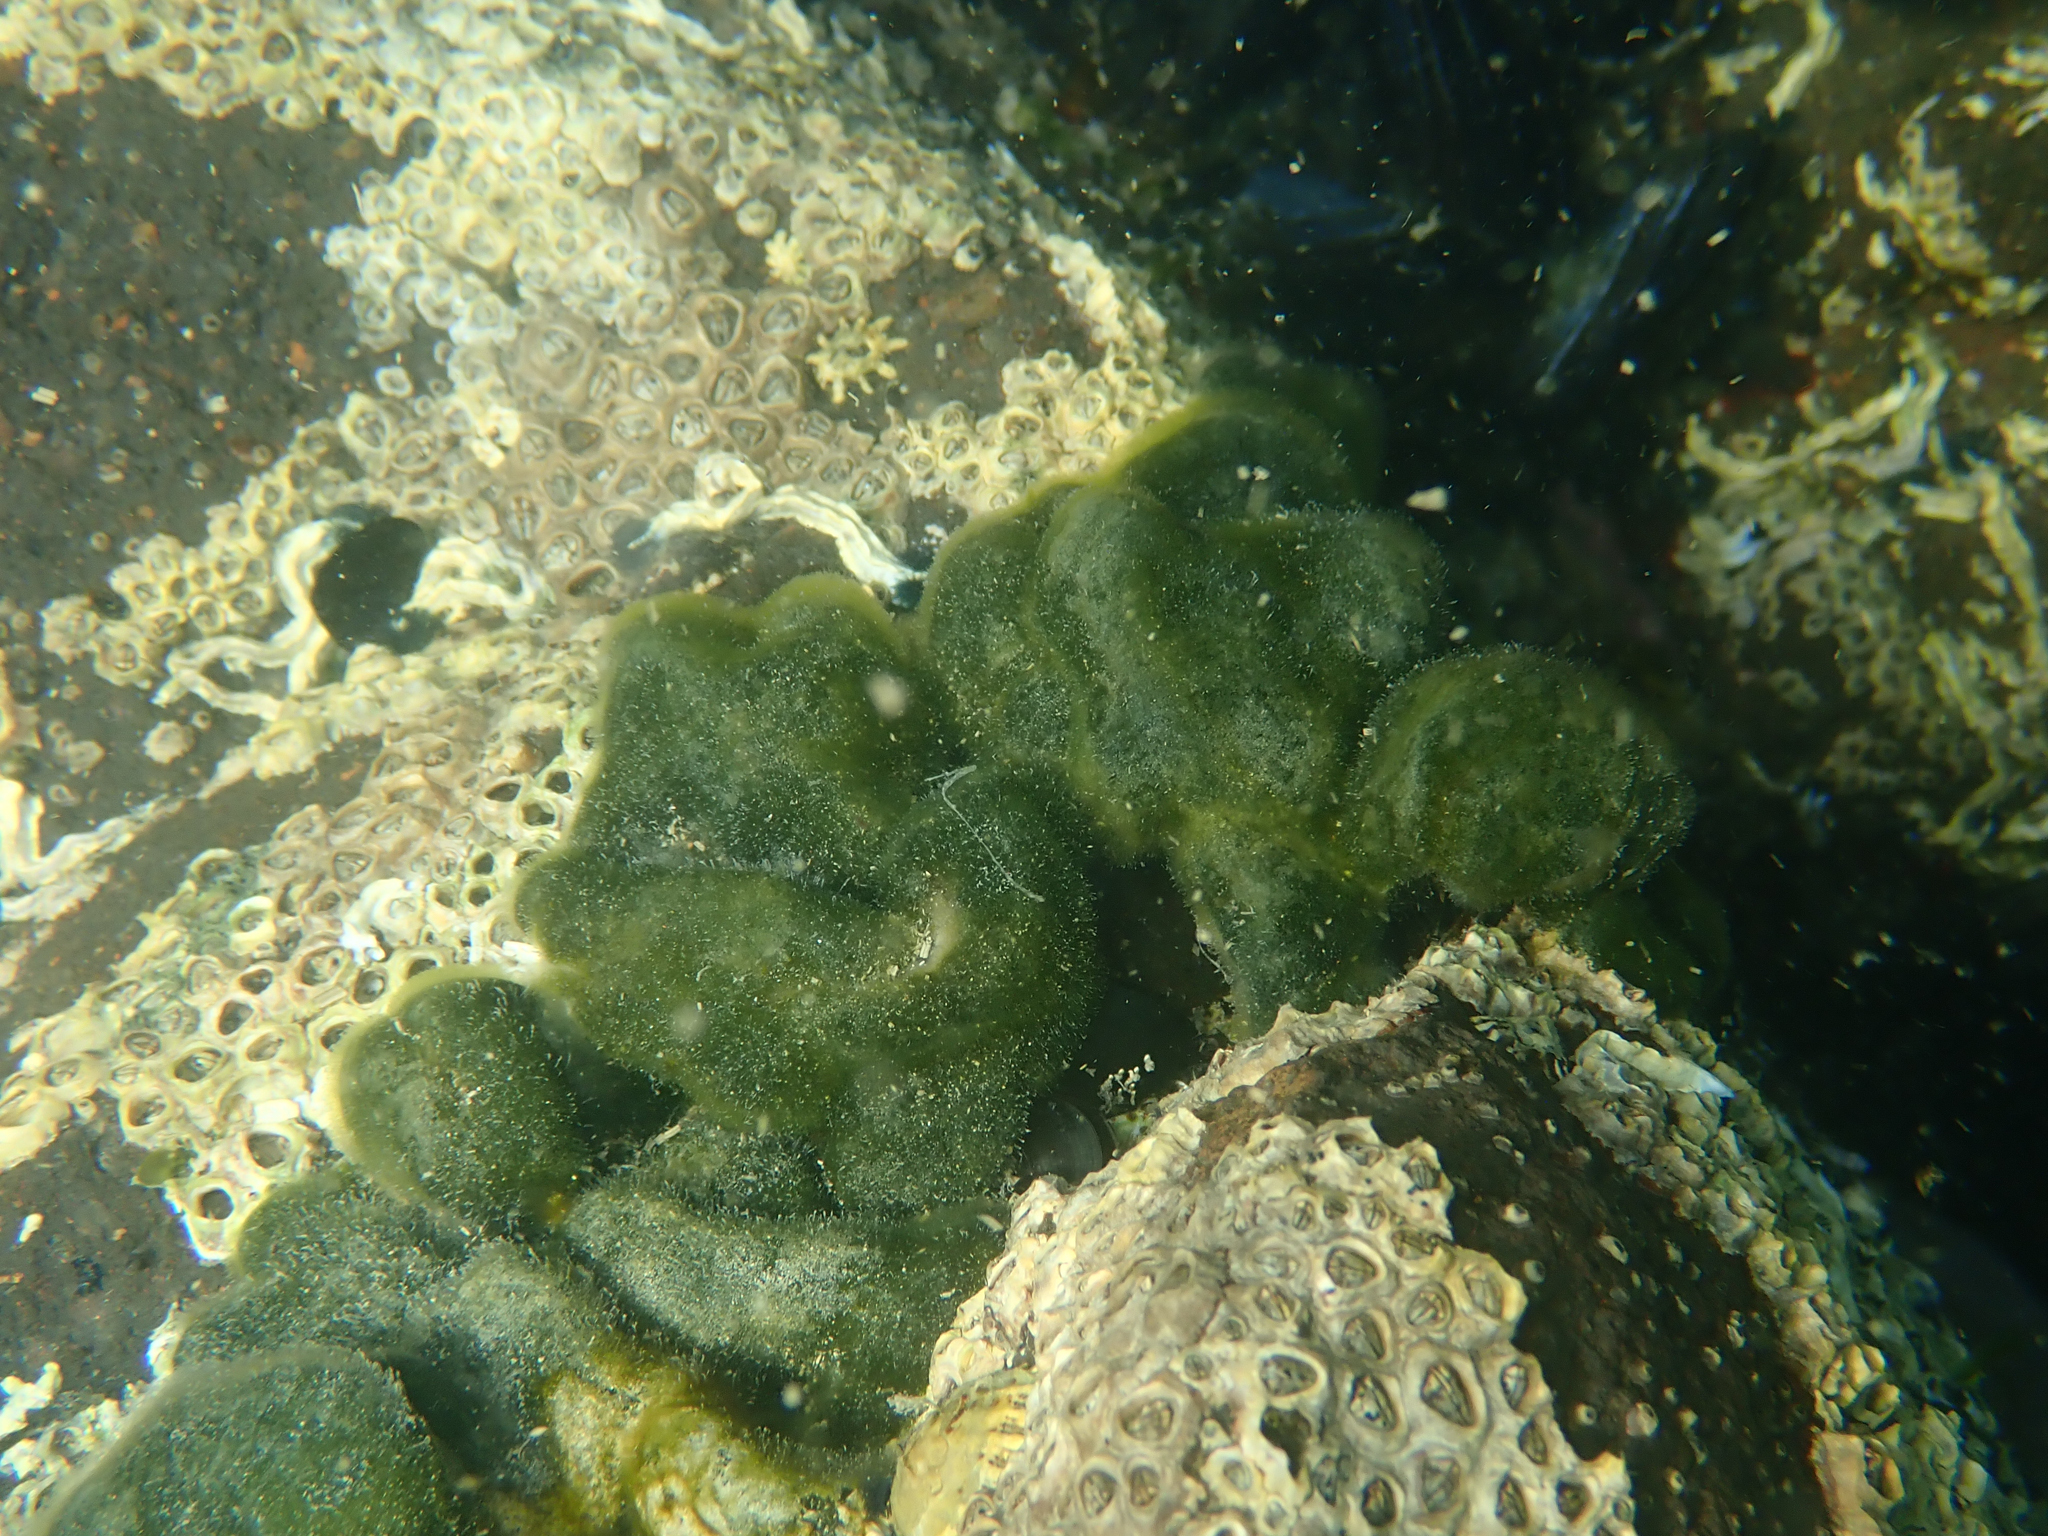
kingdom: Plantae
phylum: Chlorophyta
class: Ulvophyceae
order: Bryopsidales
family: Codiaceae
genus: Codium
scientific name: Codium convolutum
